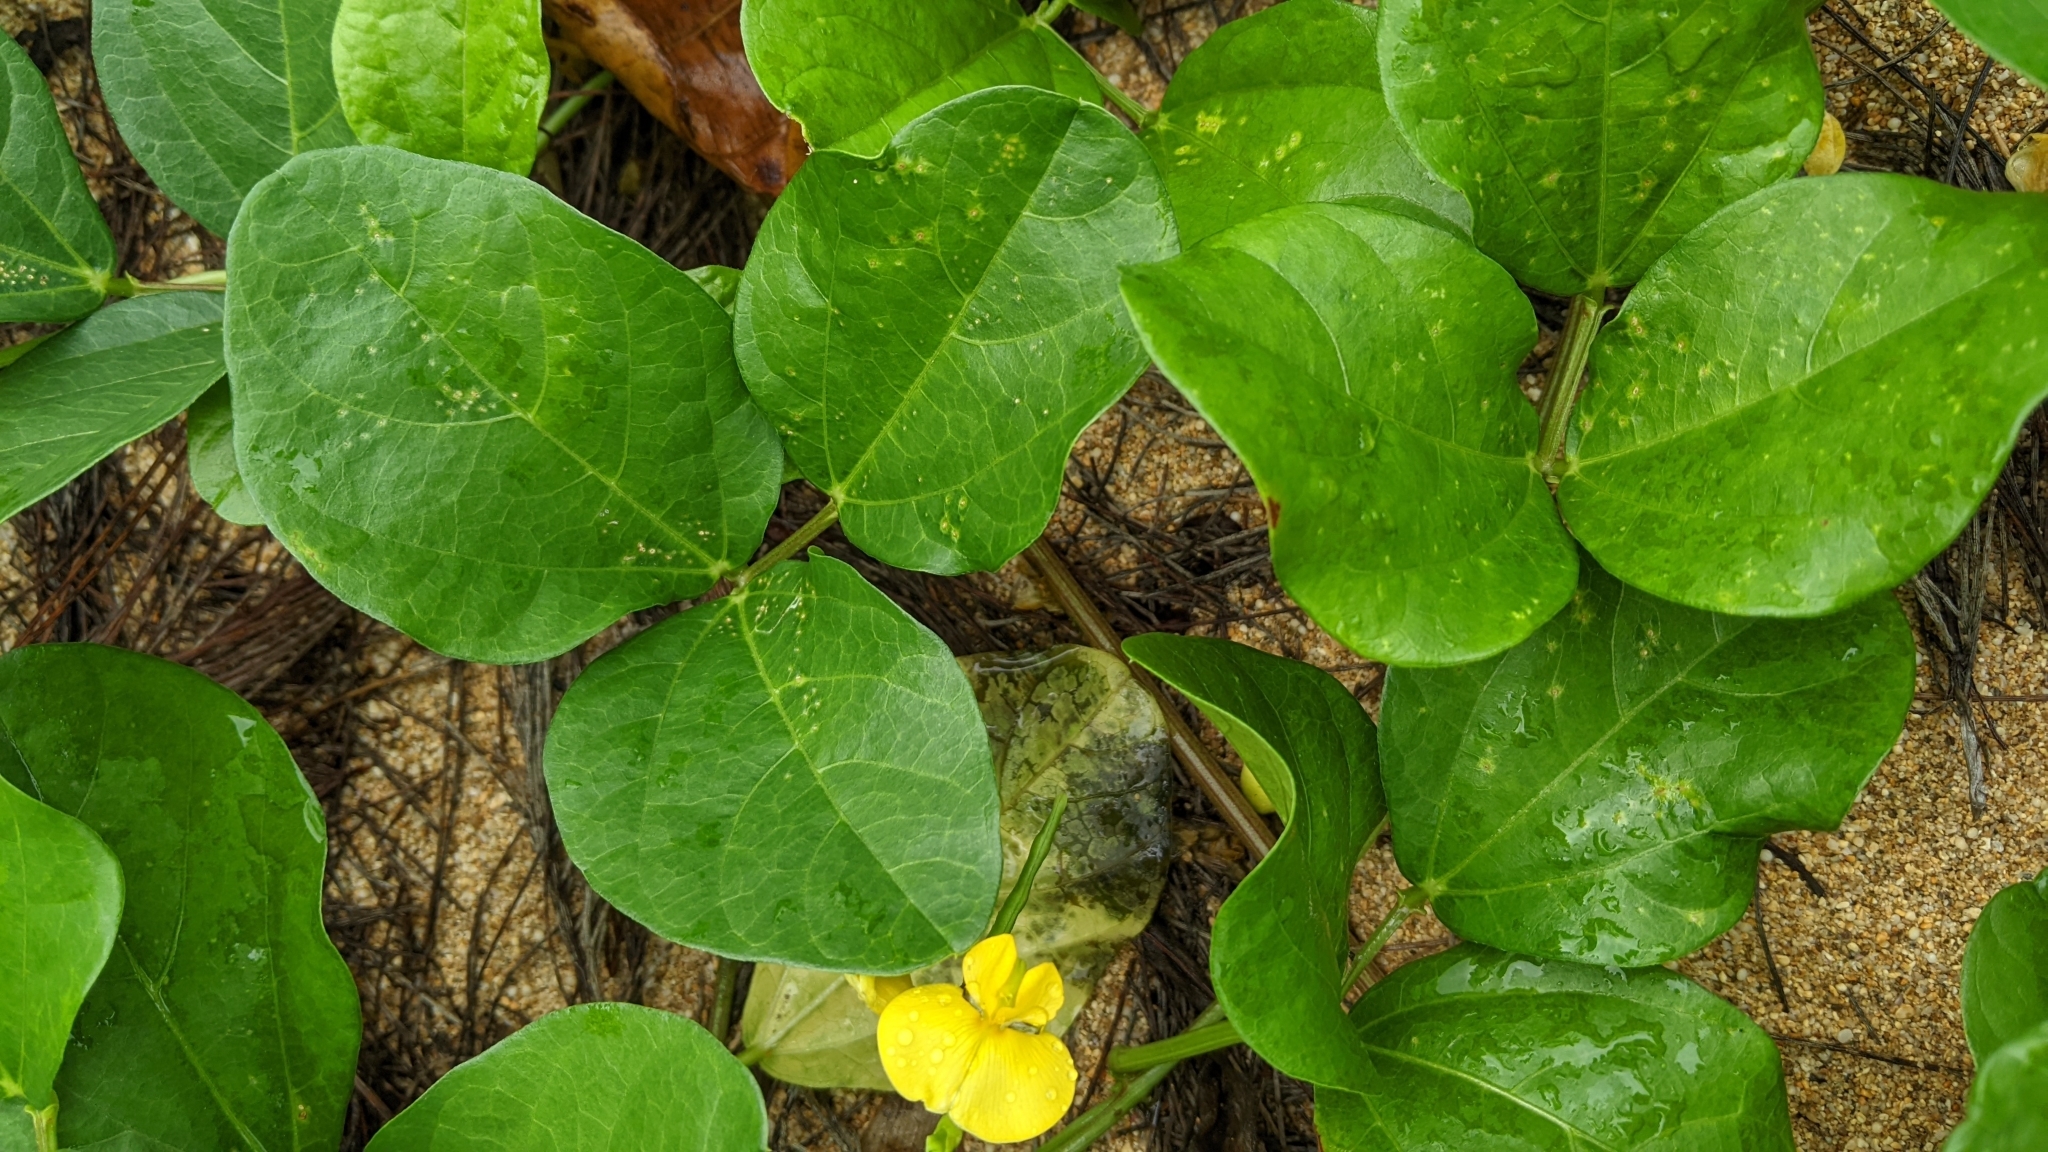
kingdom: Plantae
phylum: Tracheophyta
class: Magnoliopsida
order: Fabales
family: Fabaceae
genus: Vigna
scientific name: Vigna marina
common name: Dune-bean
